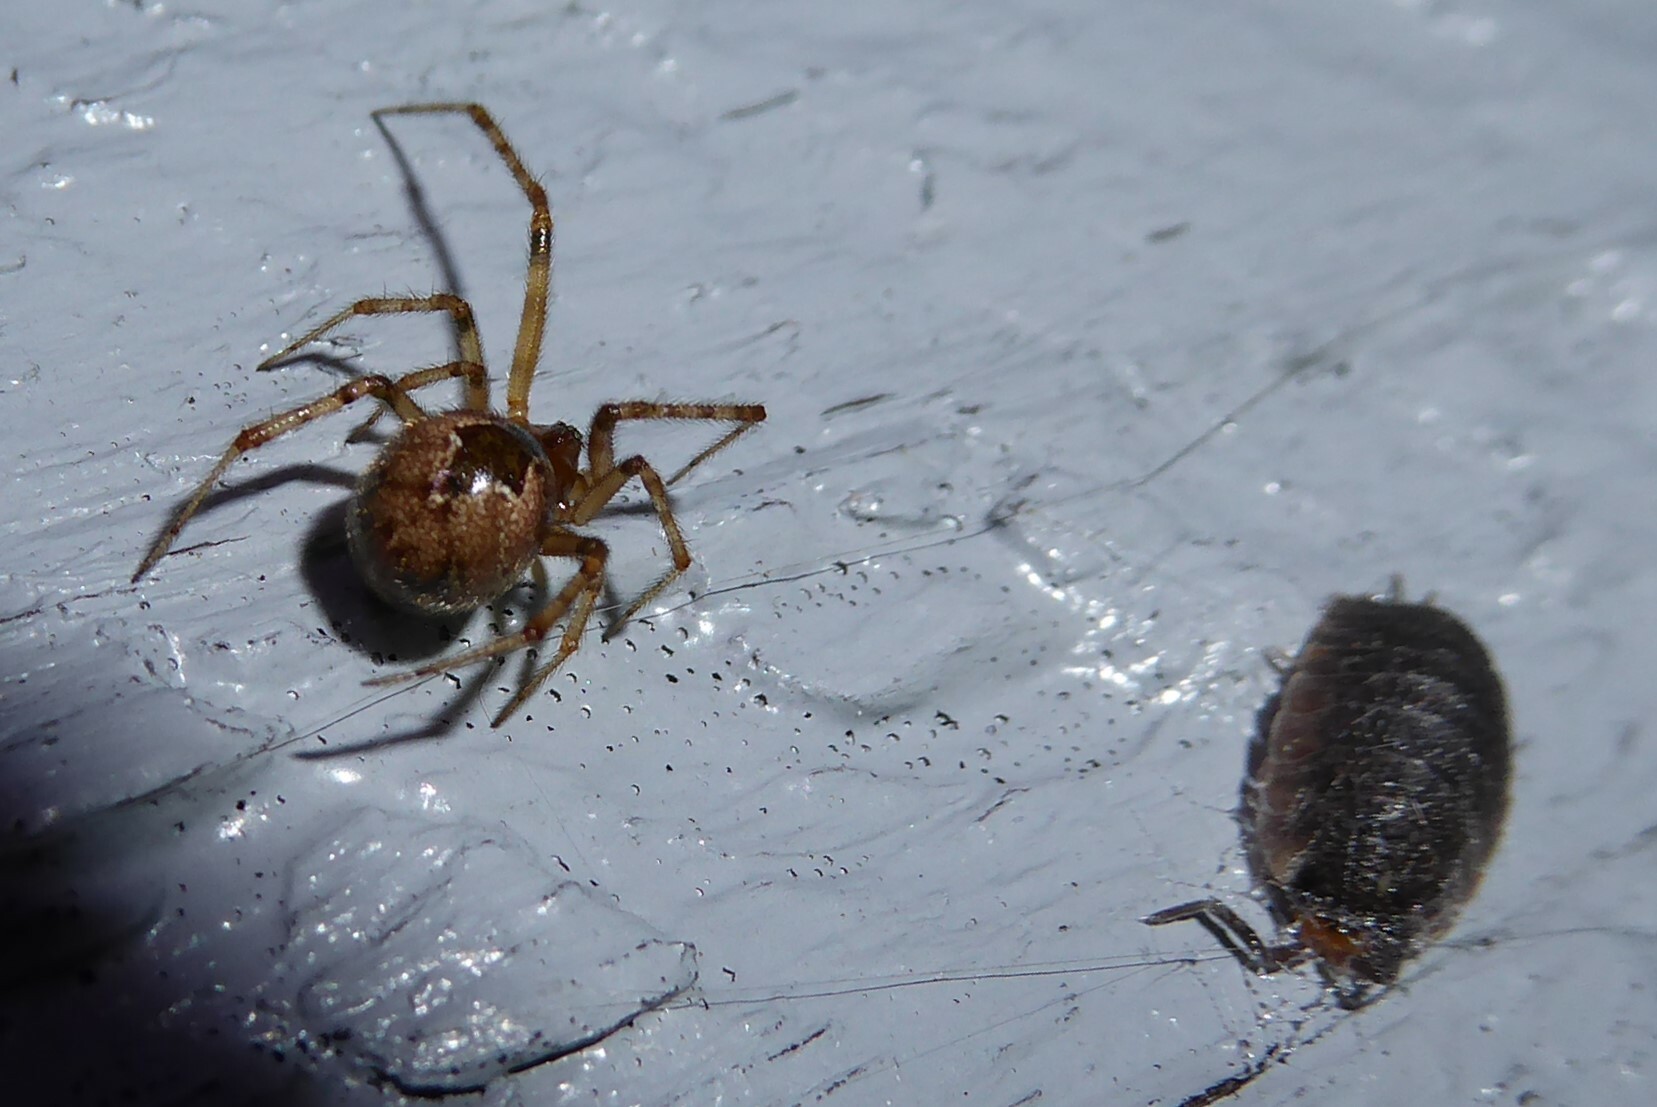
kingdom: Animalia
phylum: Arthropoda
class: Arachnida
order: Araneae
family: Theridiidae
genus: Cryptachaea
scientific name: Cryptachaea veruculata
